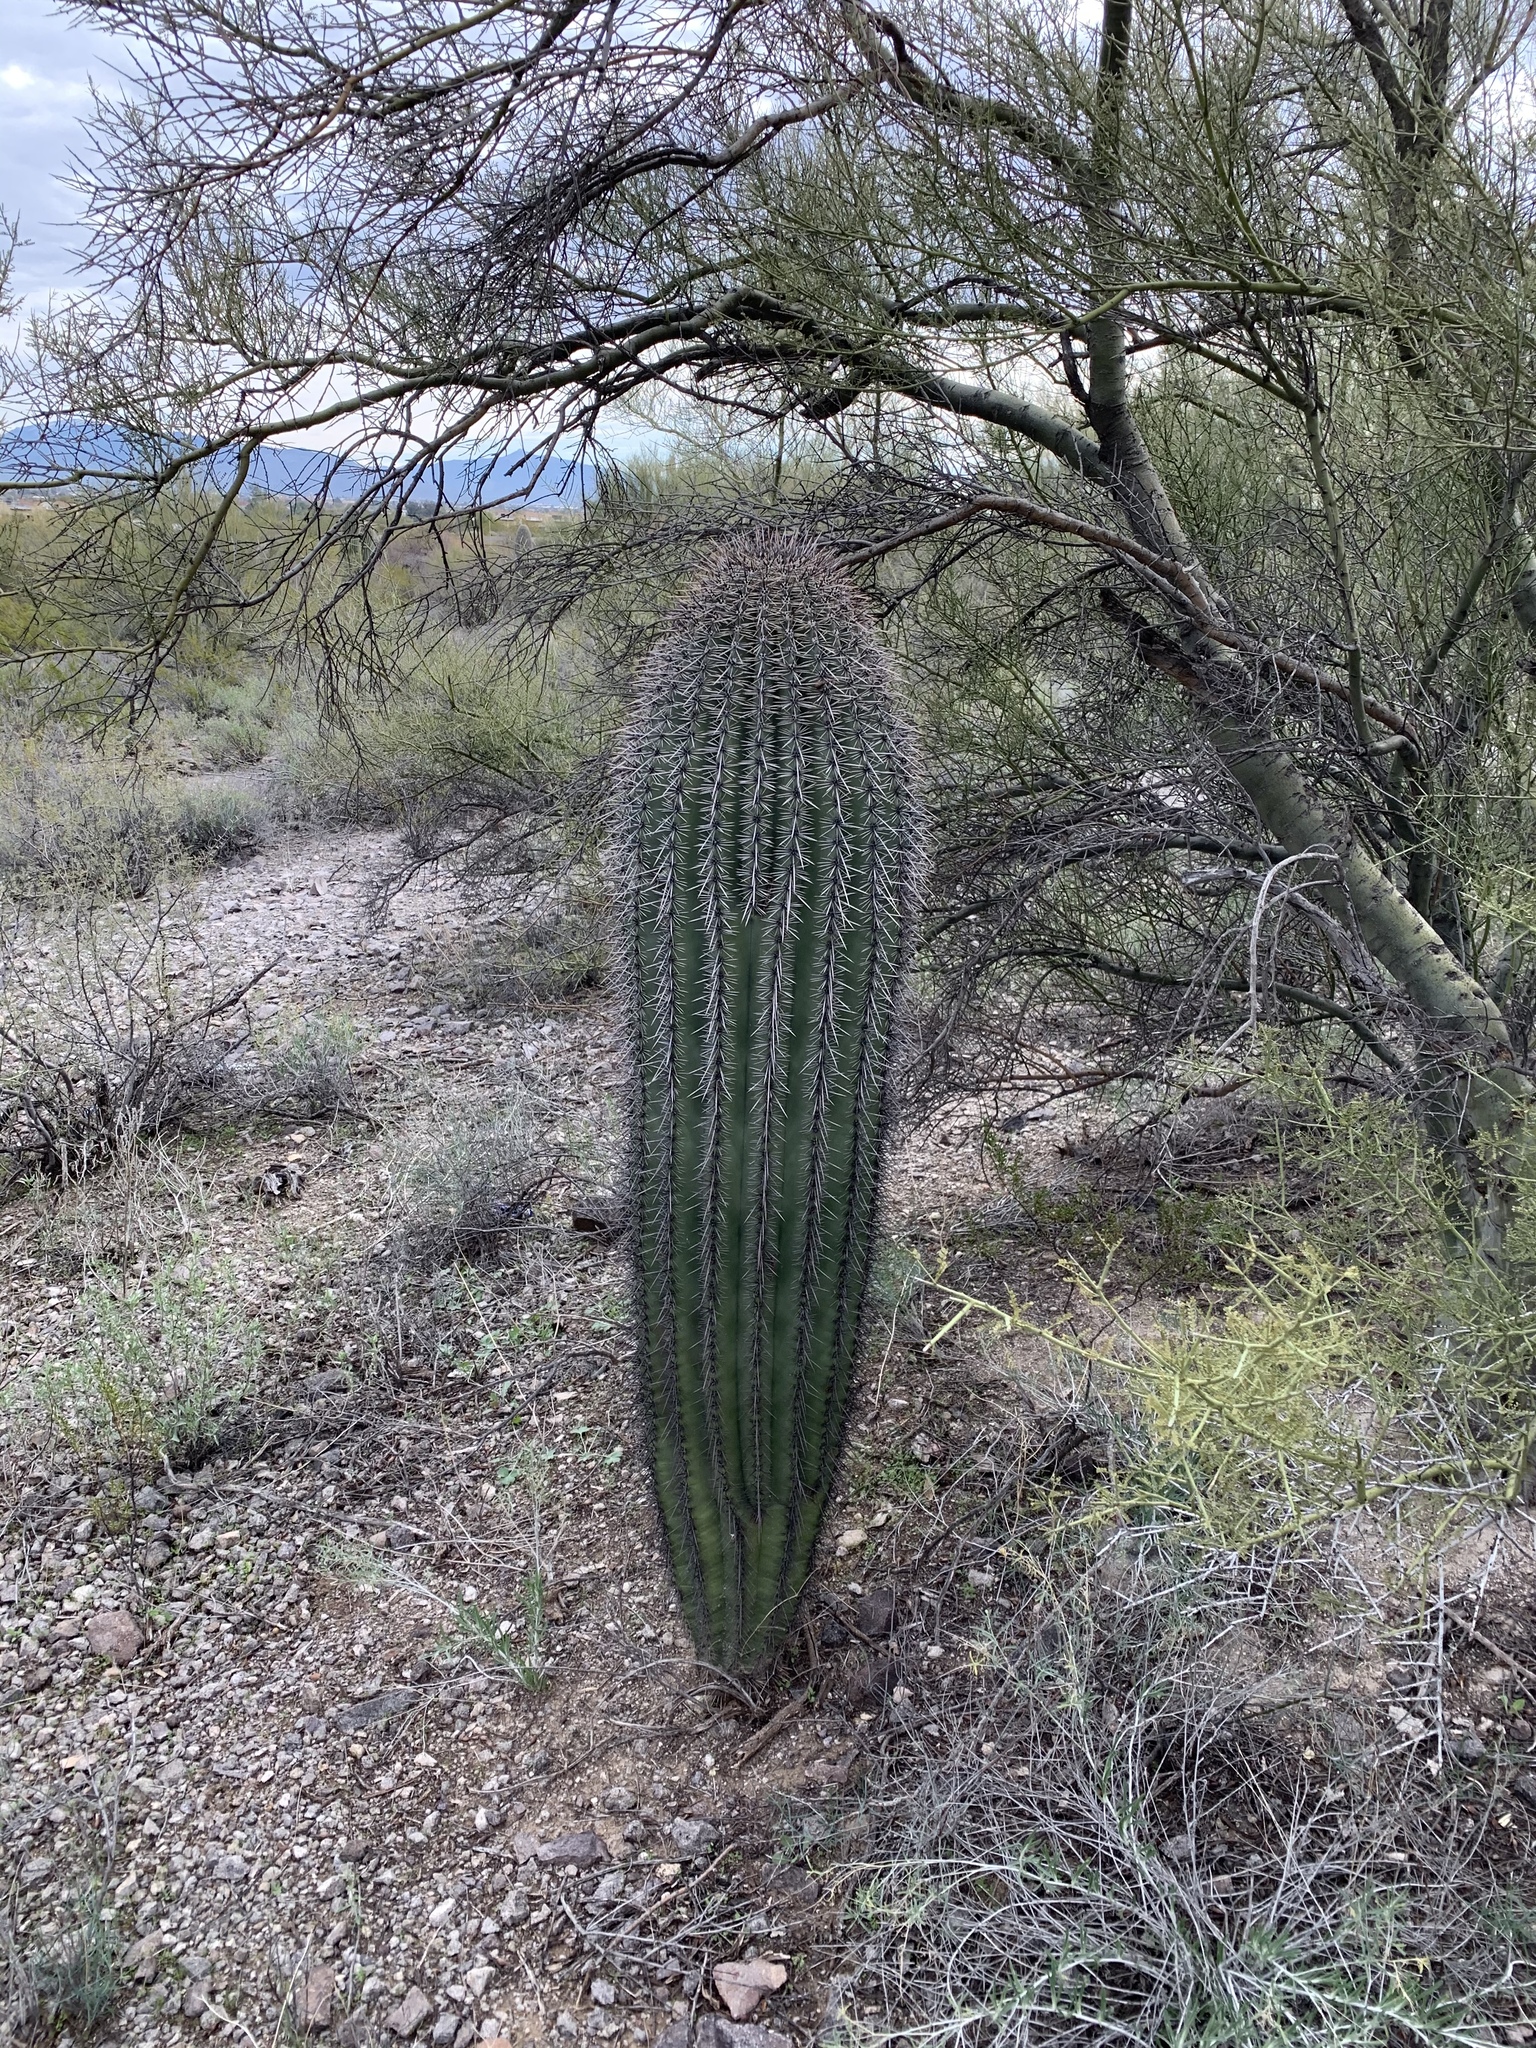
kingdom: Plantae
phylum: Tracheophyta
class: Magnoliopsida
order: Caryophyllales
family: Cactaceae
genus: Carnegiea
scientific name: Carnegiea gigantea
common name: Saguaro
